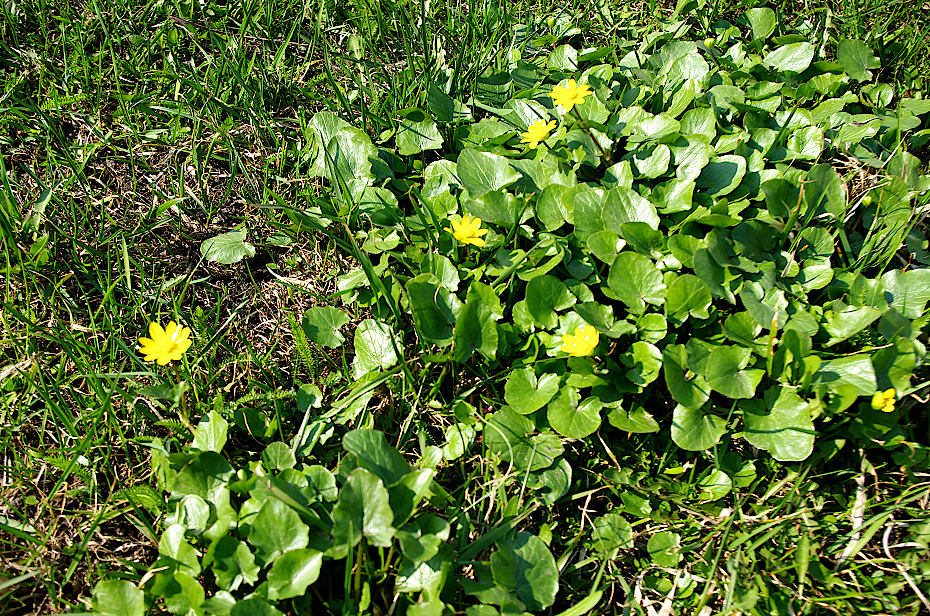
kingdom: Plantae
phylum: Tracheophyta
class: Magnoliopsida
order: Ranunculales
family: Ranunculaceae
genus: Ficaria
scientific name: Ficaria verna
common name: Lesser celandine
